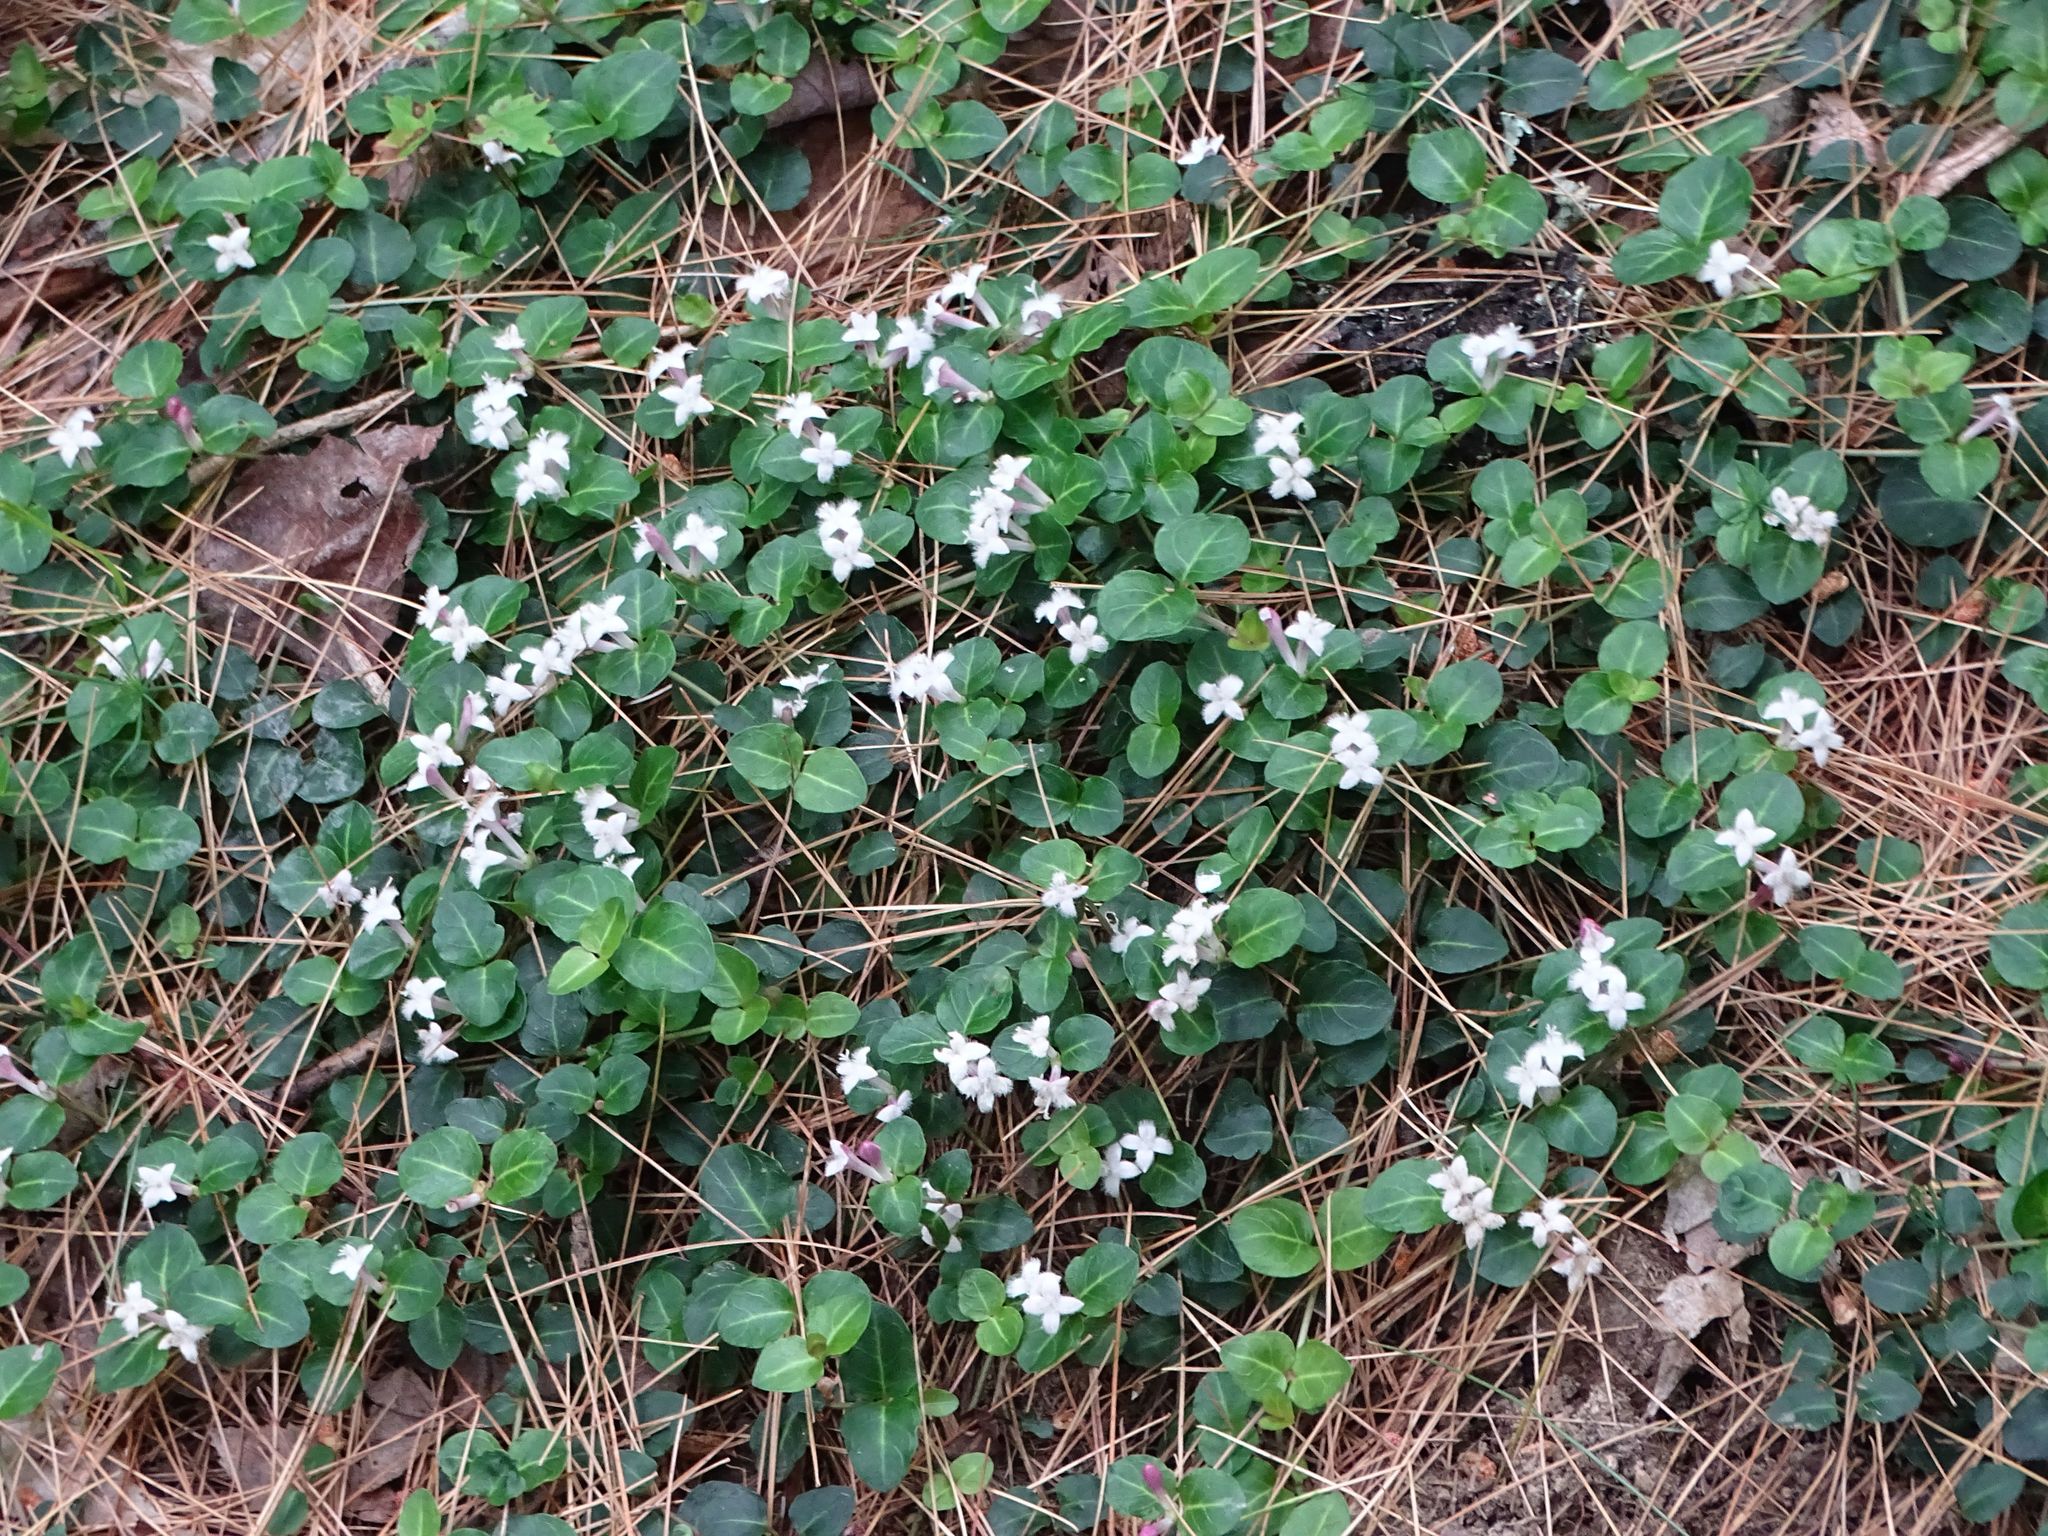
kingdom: Plantae
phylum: Tracheophyta
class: Magnoliopsida
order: Gentianales
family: Rubiaceae
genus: Mitchella
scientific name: Mitchella repens
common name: Partridge-berry
